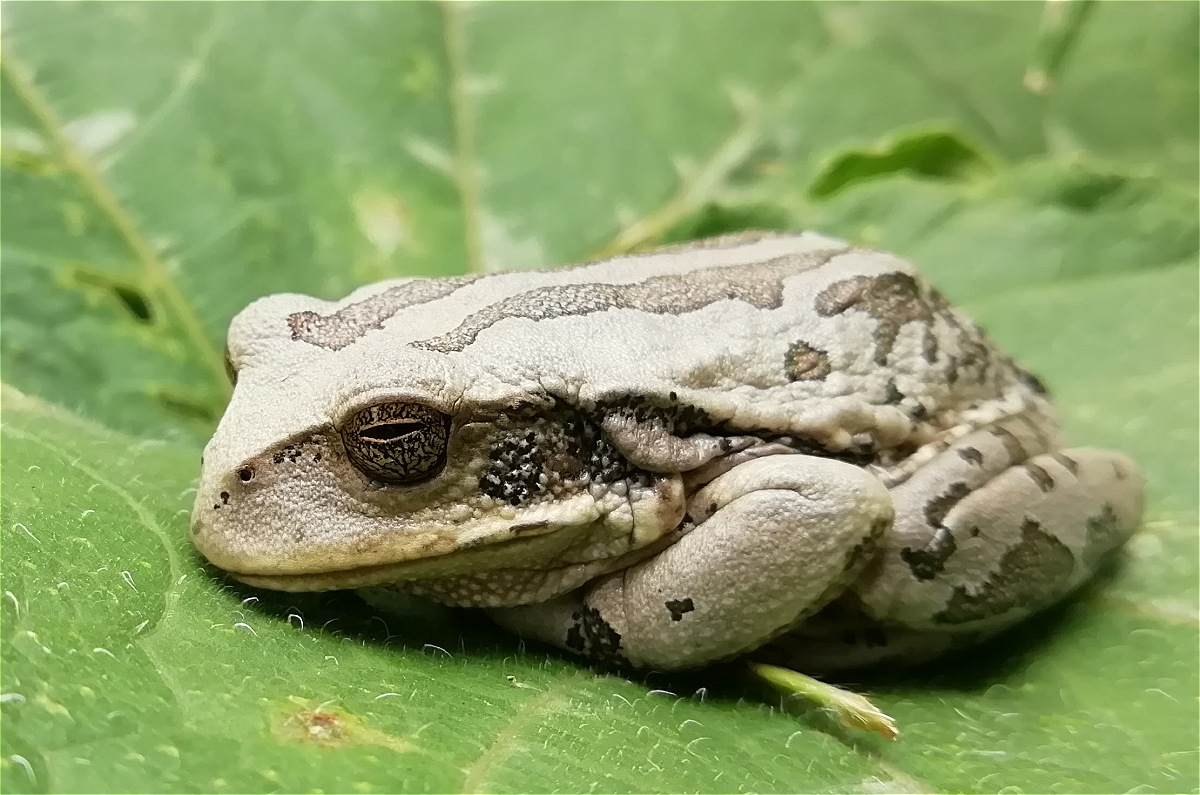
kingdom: Animalia
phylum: Chordata
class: Amphibia
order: Anura
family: Hemiphractidae
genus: Gastrotheca
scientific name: Gastrotheca cuencana
